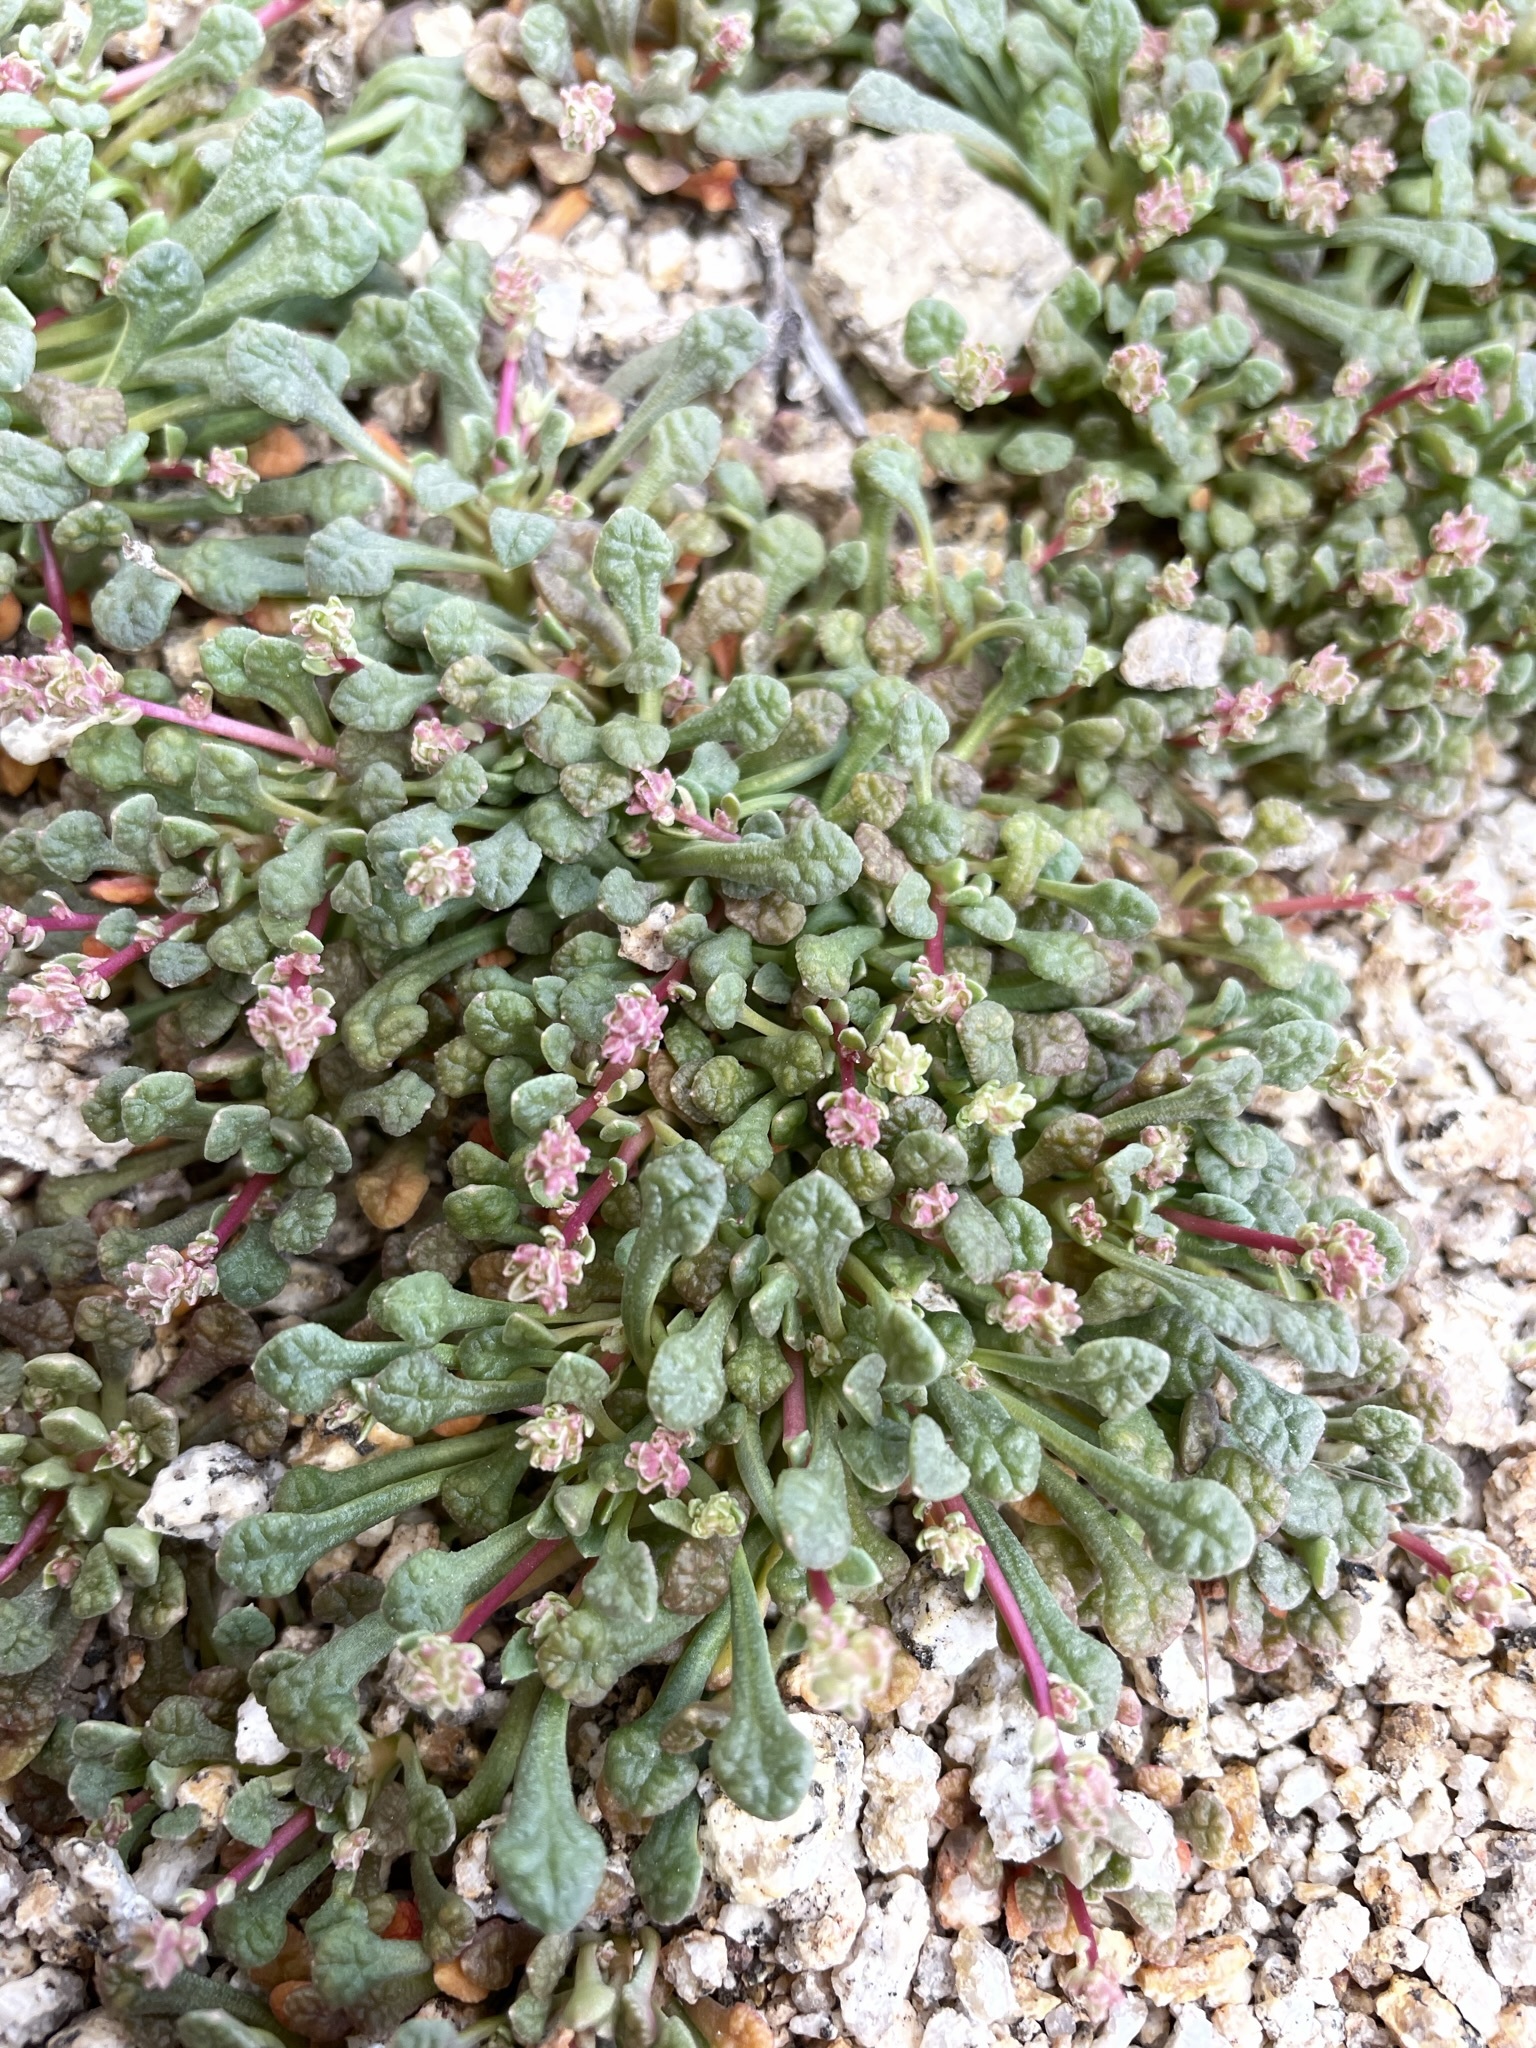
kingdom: Plantae
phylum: Tracheophyta
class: Magnoliopsida
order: Caryophyllales
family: Montiaceae
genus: Calyptridium
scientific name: Calyptridium monandrum
